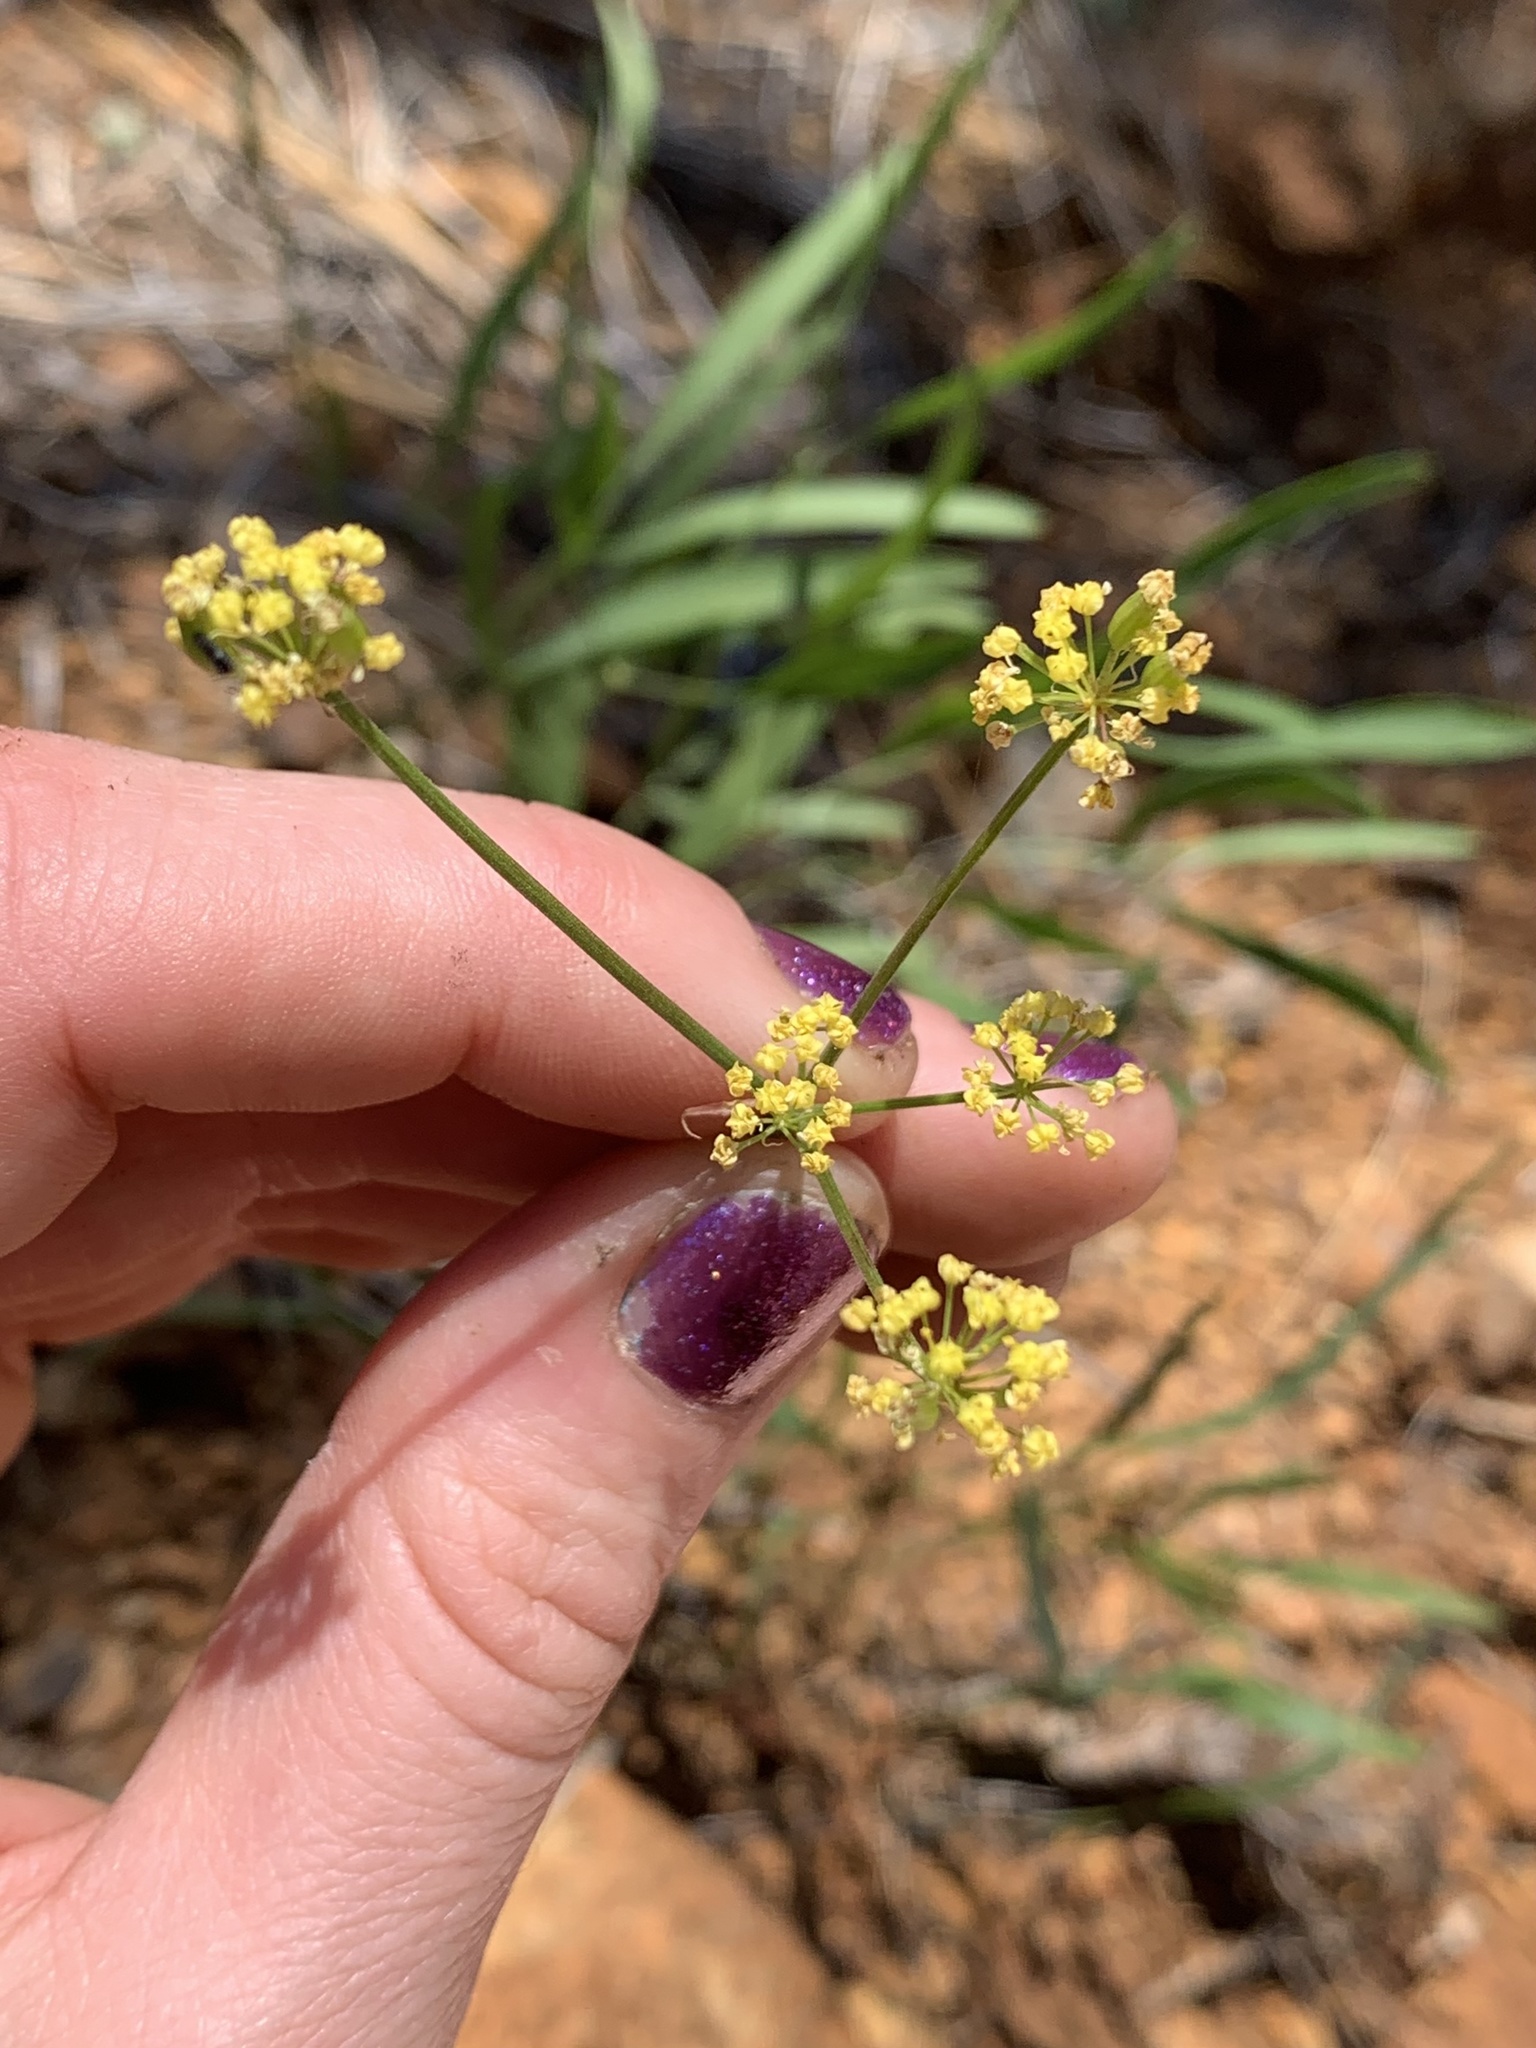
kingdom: Plantae
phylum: Tracheophyta
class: Magnoliopsida
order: Apiales
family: Apiaceae
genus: Lomatium
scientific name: Lomatium triternatum
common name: Ternate lomatium
